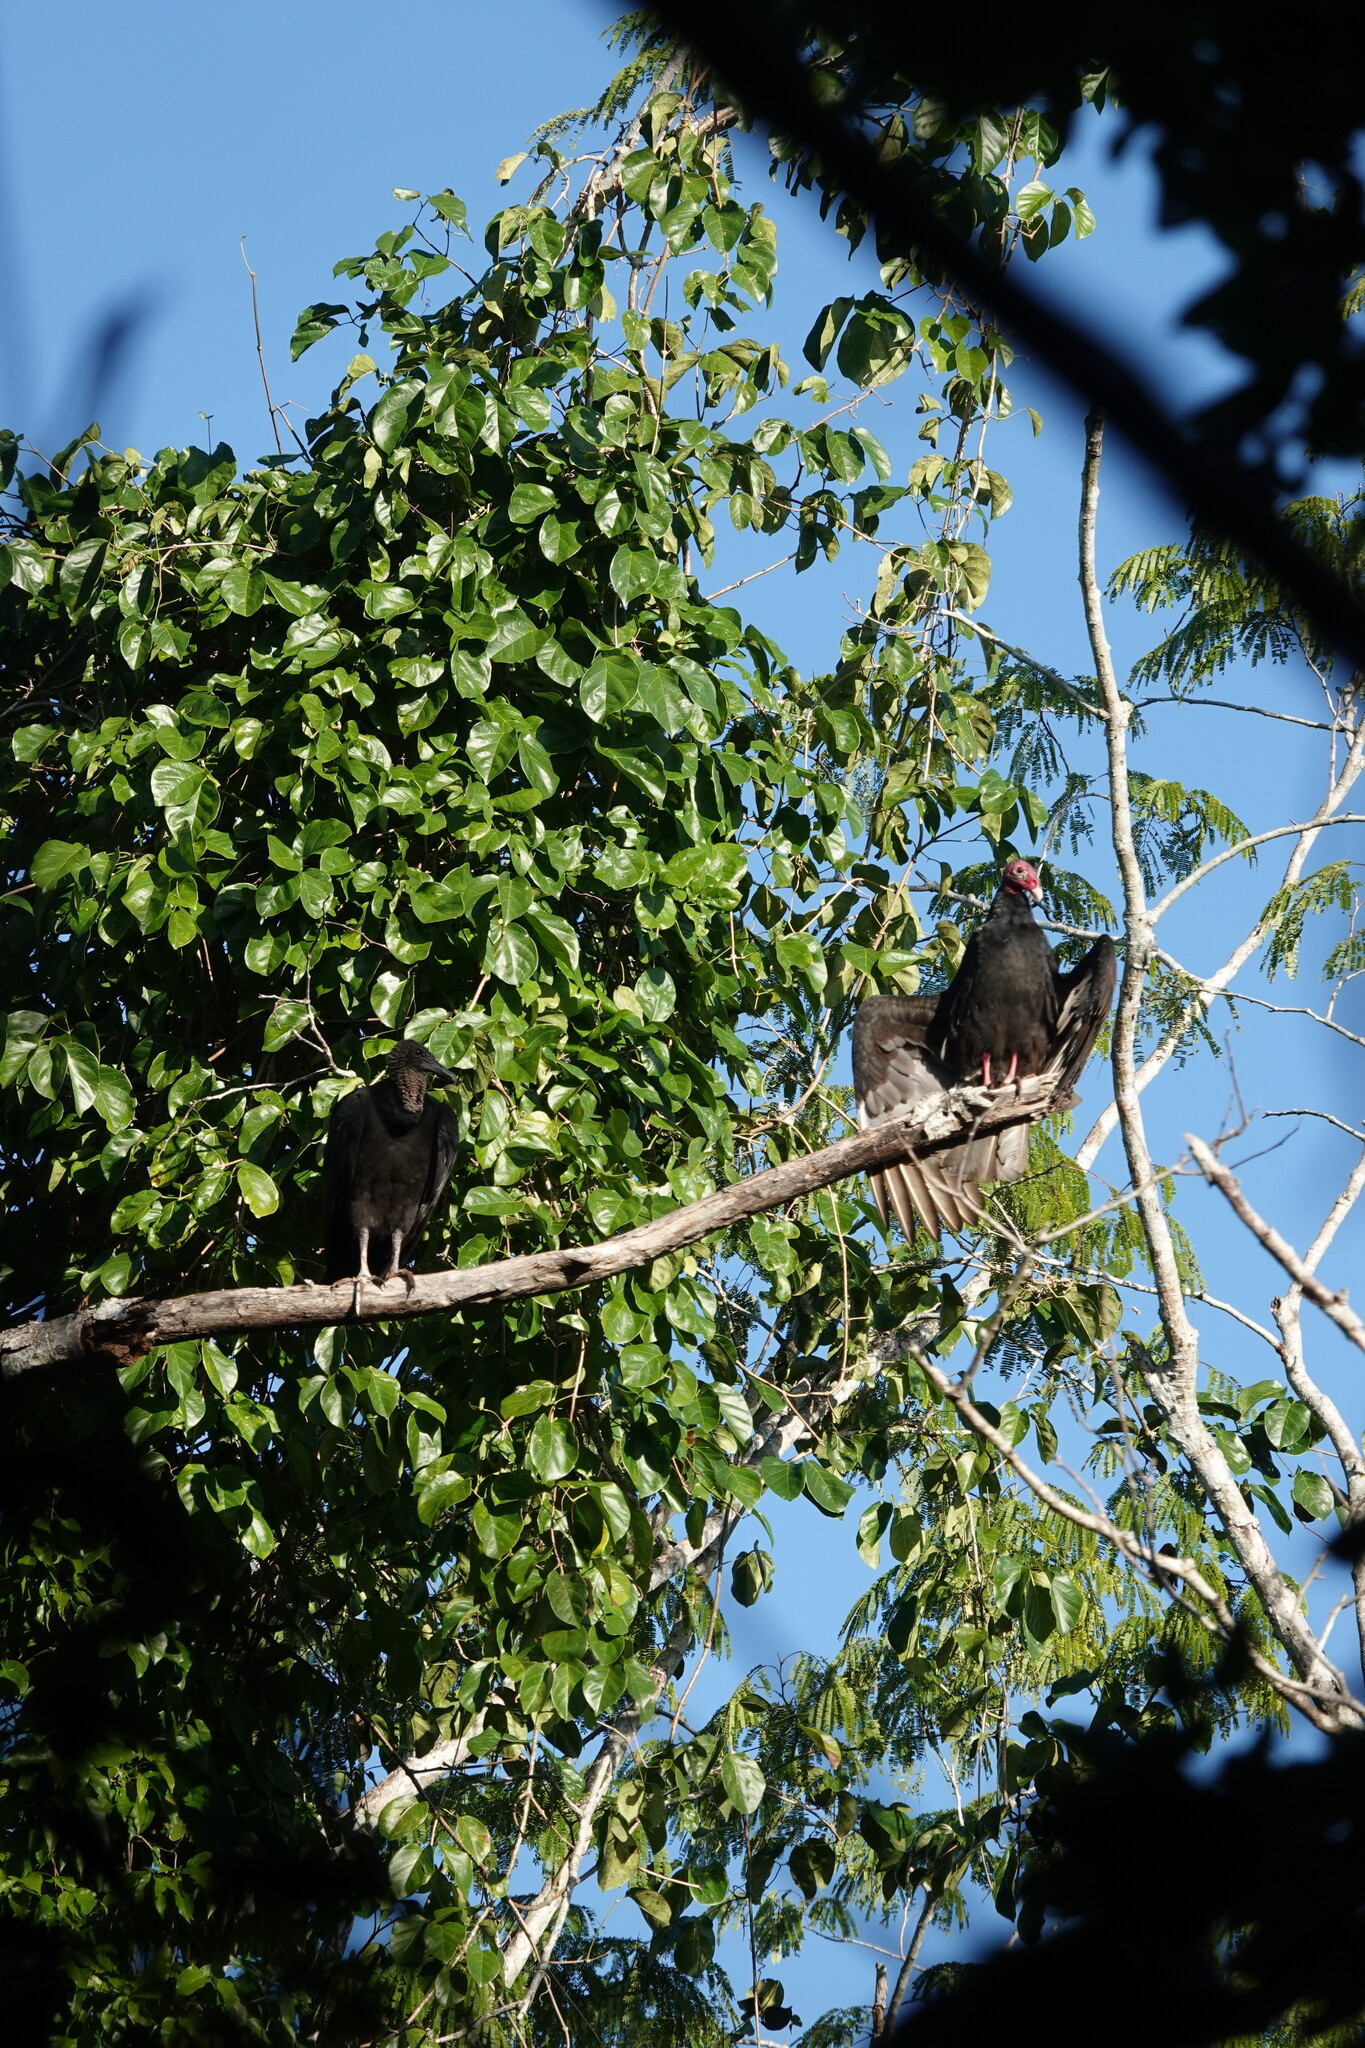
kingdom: Animalia
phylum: Chordata
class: Aves
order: Accipitriformes
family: Cathartidae
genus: Cathartes
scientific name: Cathartes aura
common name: Turkey vulture
